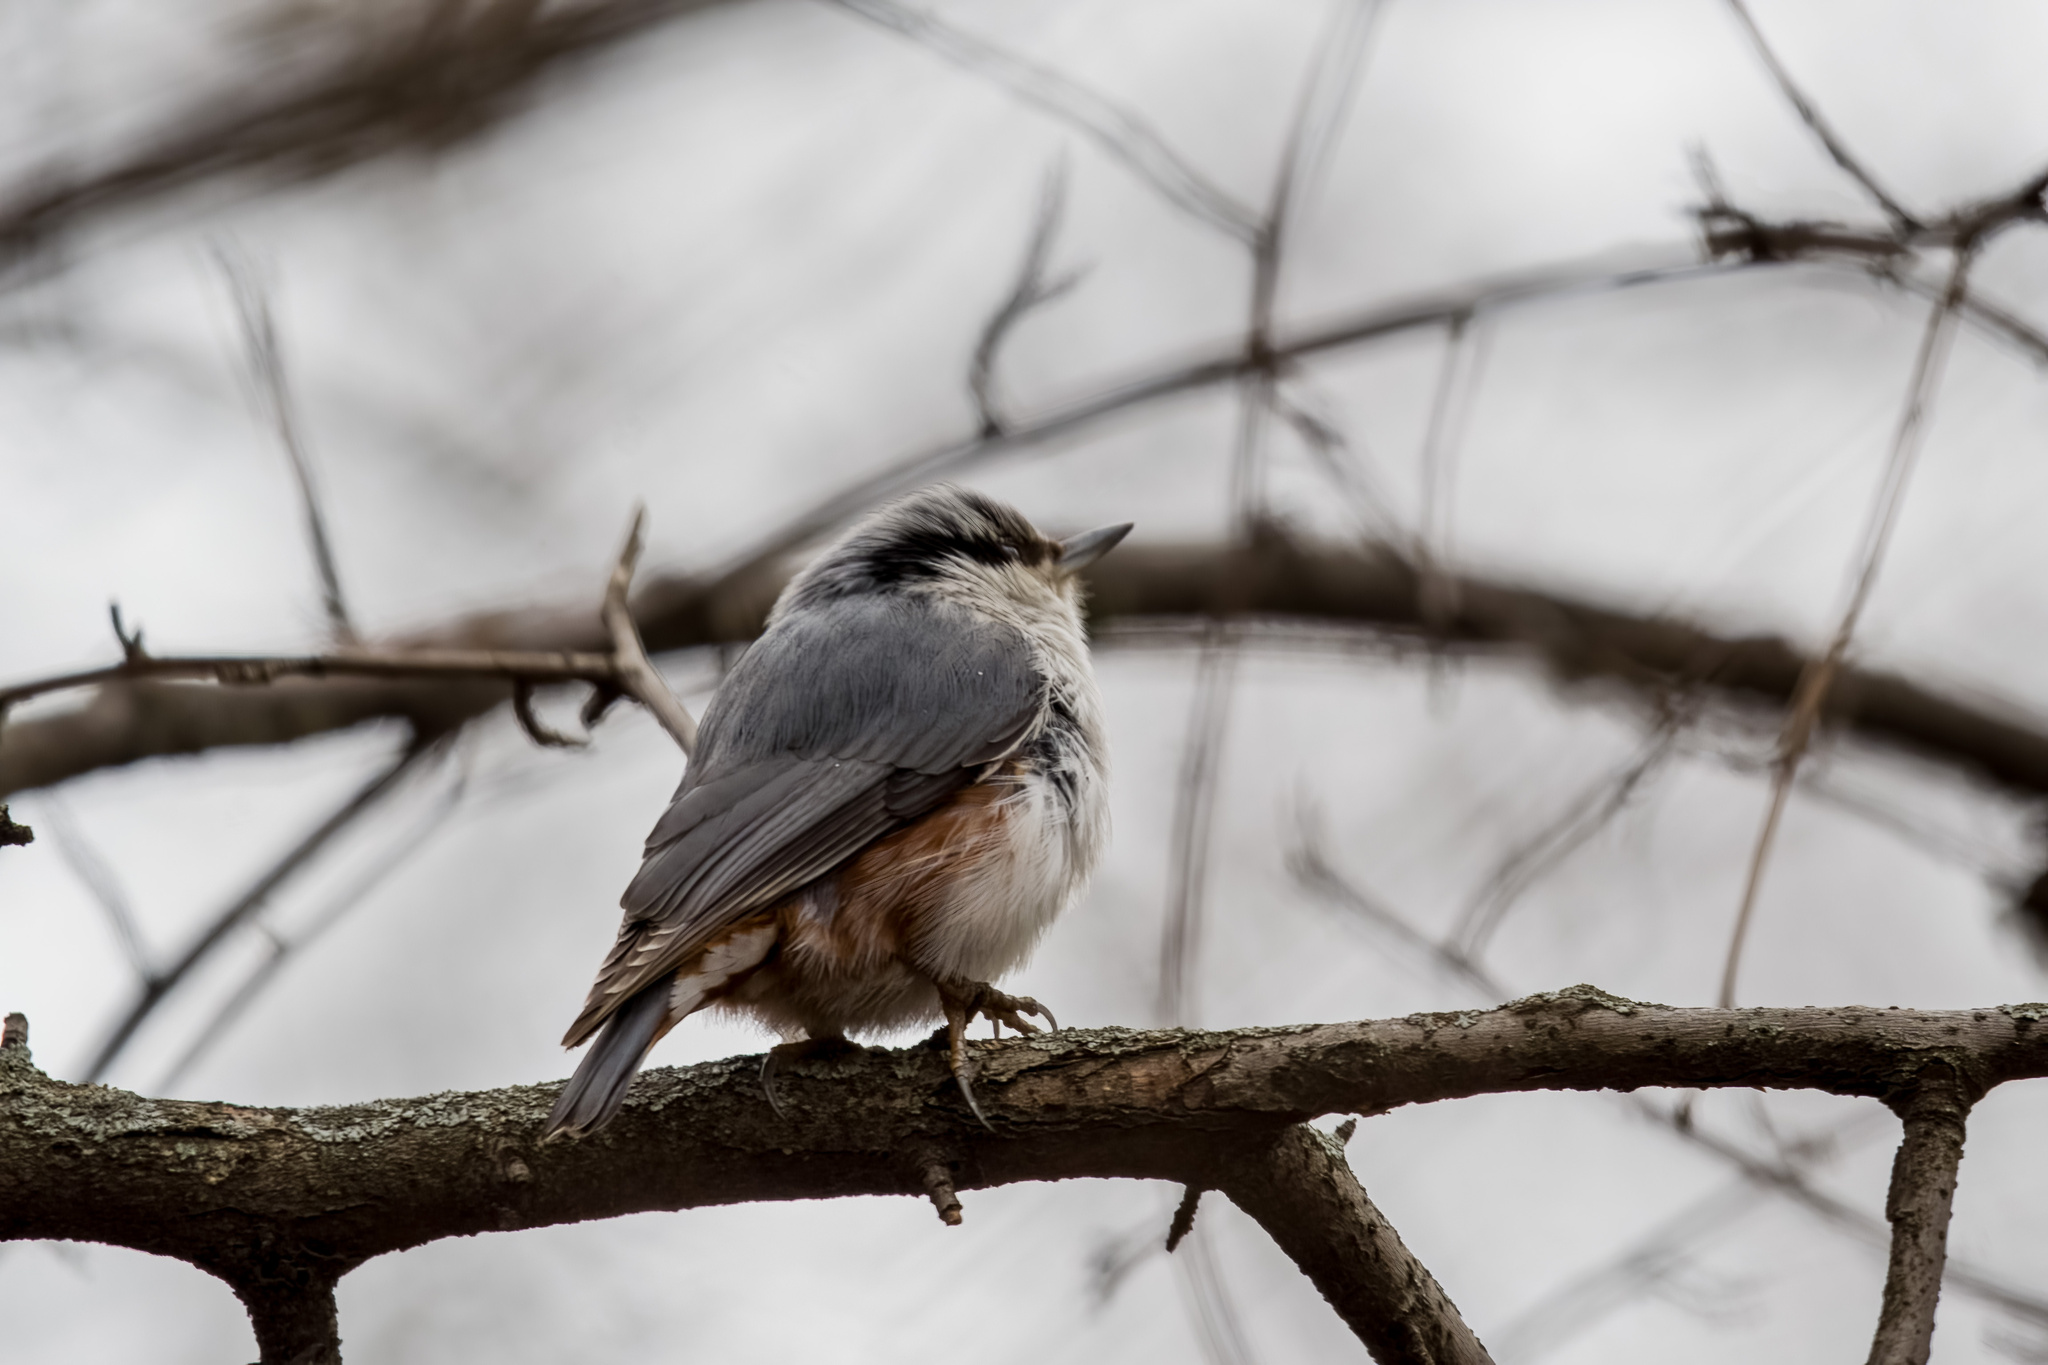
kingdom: Animalia
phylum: Chordata
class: Aves
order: Passeriformes
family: Sittidae
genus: Sitta
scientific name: Sitta europaea
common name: Eurasian nuthatch
